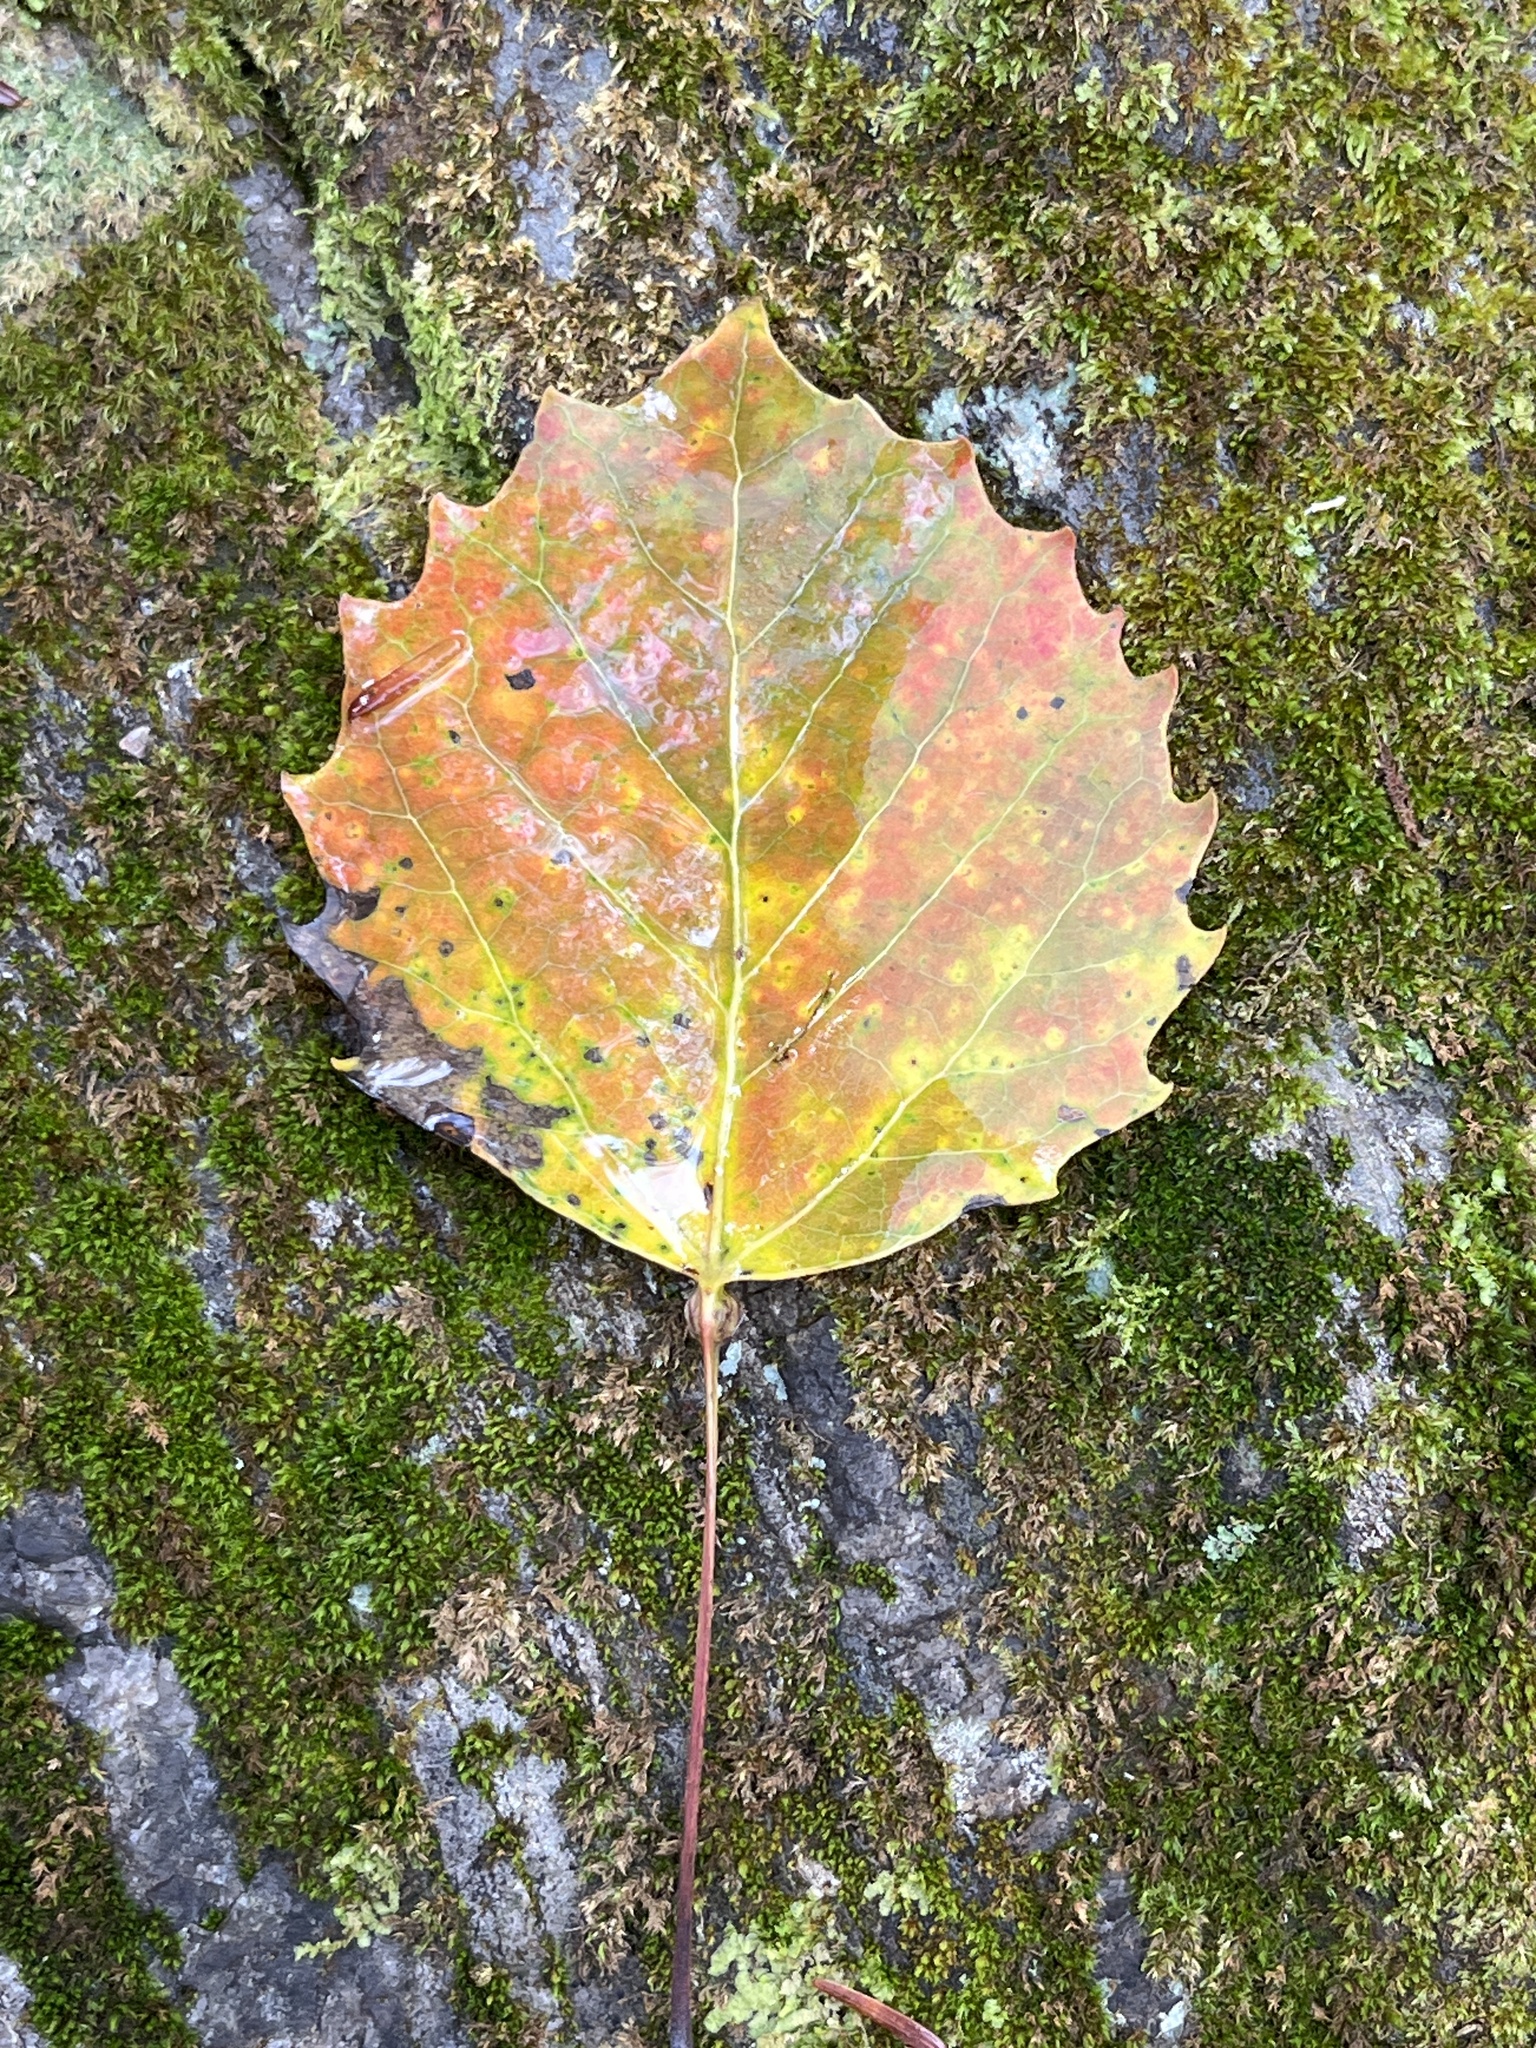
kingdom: Plantae
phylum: Tracheophyta
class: Magnoliopsida
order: Malpighiales
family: Salicaceae
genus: Populus
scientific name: Populus grandidentata
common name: Bigtooth aspen
